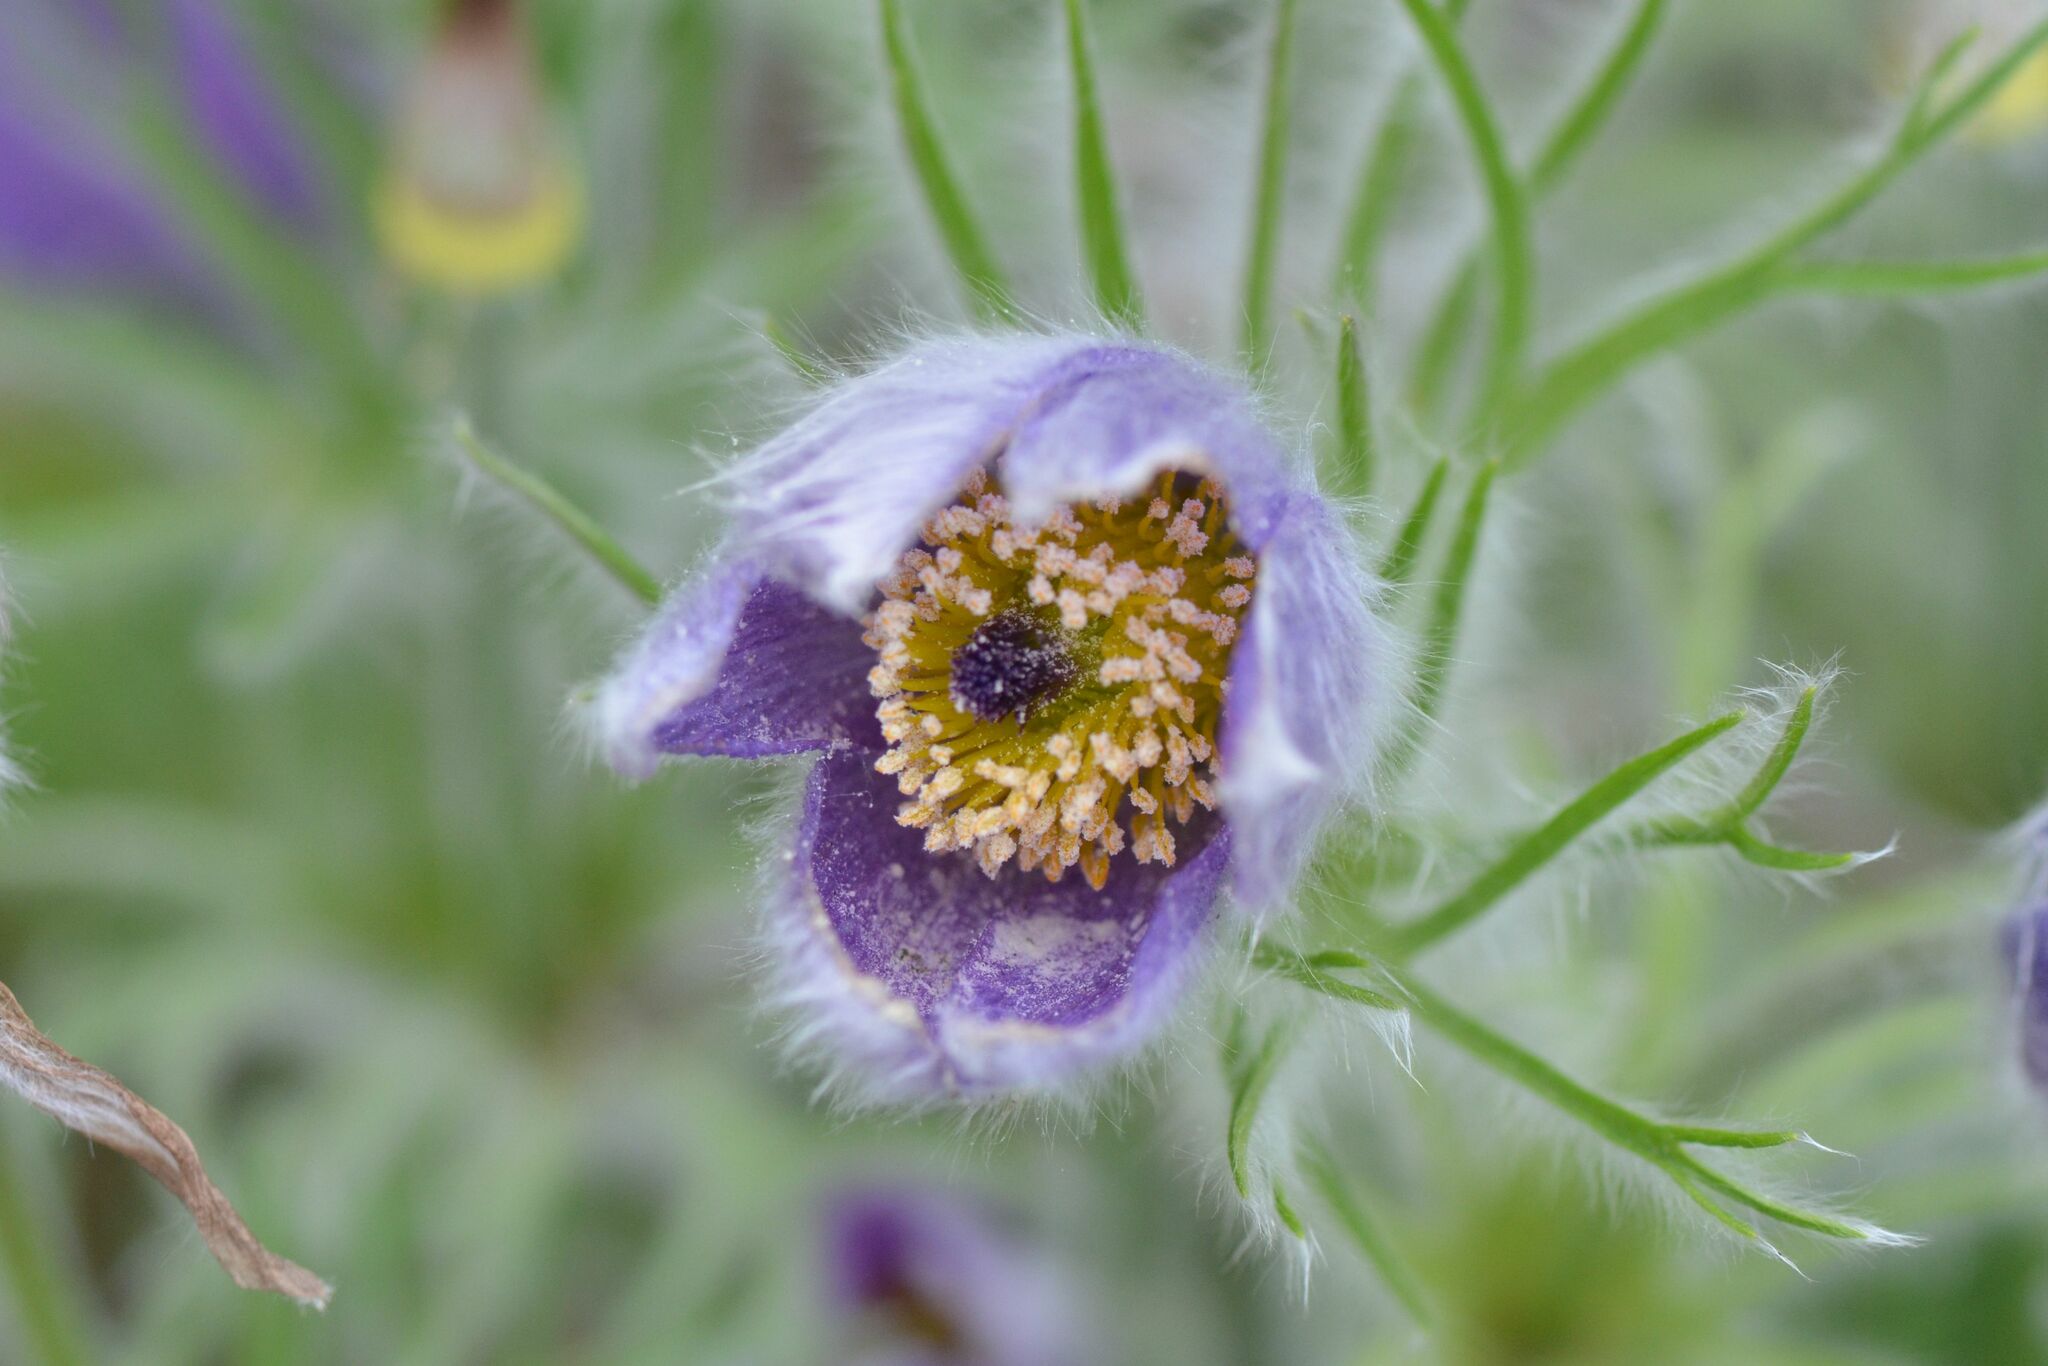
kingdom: Plantae
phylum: Tracheophyta
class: Magnoliopsida
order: Ranunculales
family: Ranunculaceae
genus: Pulsatilla
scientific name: Pulsatilla vulgaris
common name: Pasqueflower
